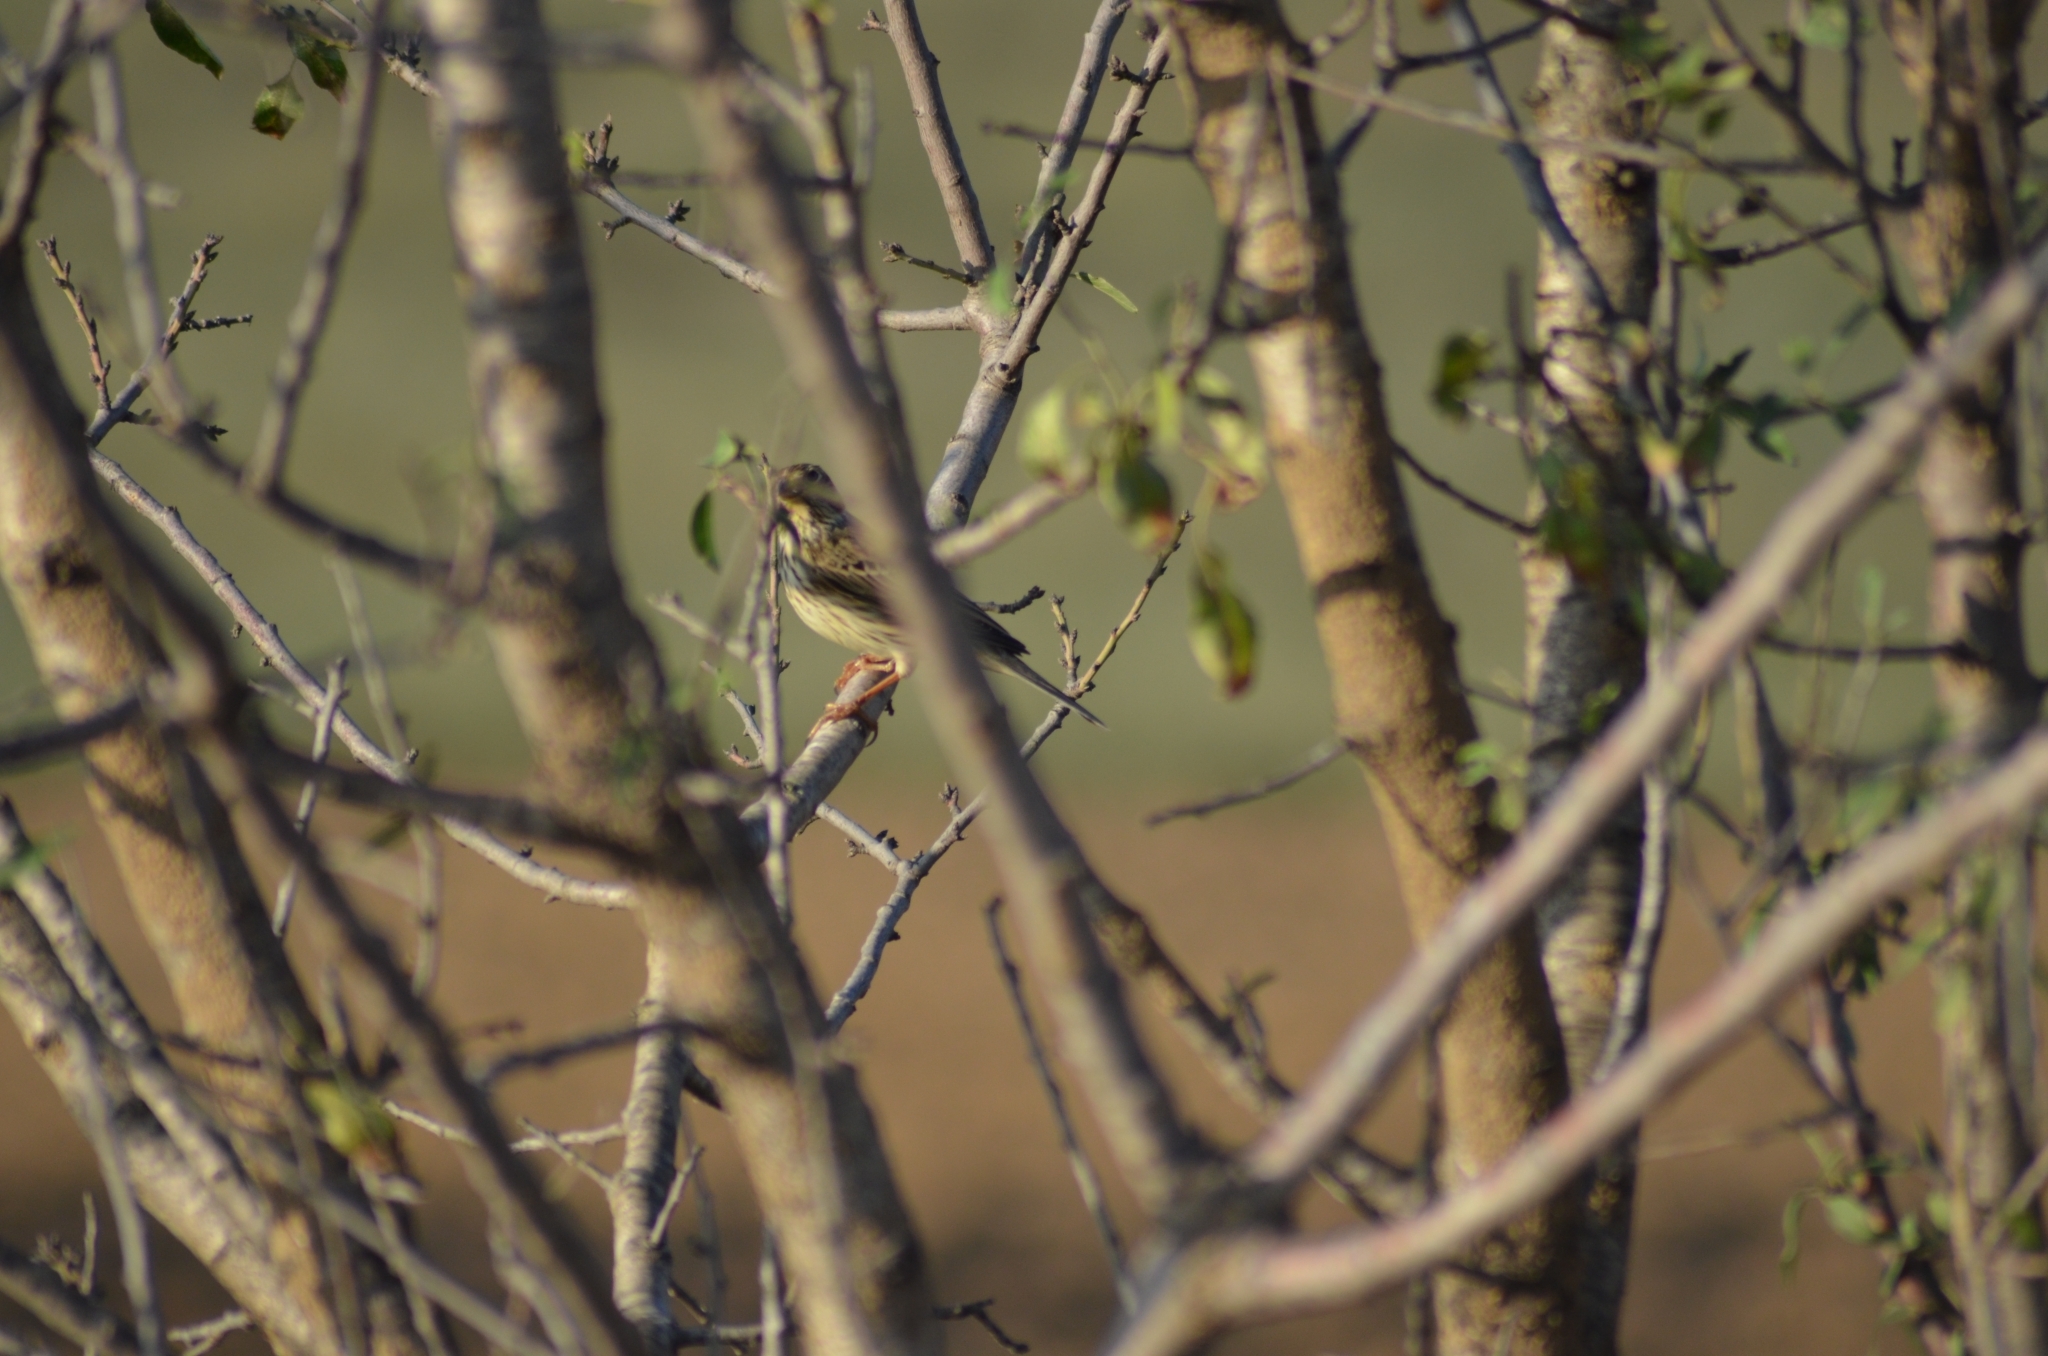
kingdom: Animalia
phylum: Chordata
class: Aves
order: Passeriformes
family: Emberizidae
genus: Emberiza
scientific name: Emberiza calandra
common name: Corn bunting
